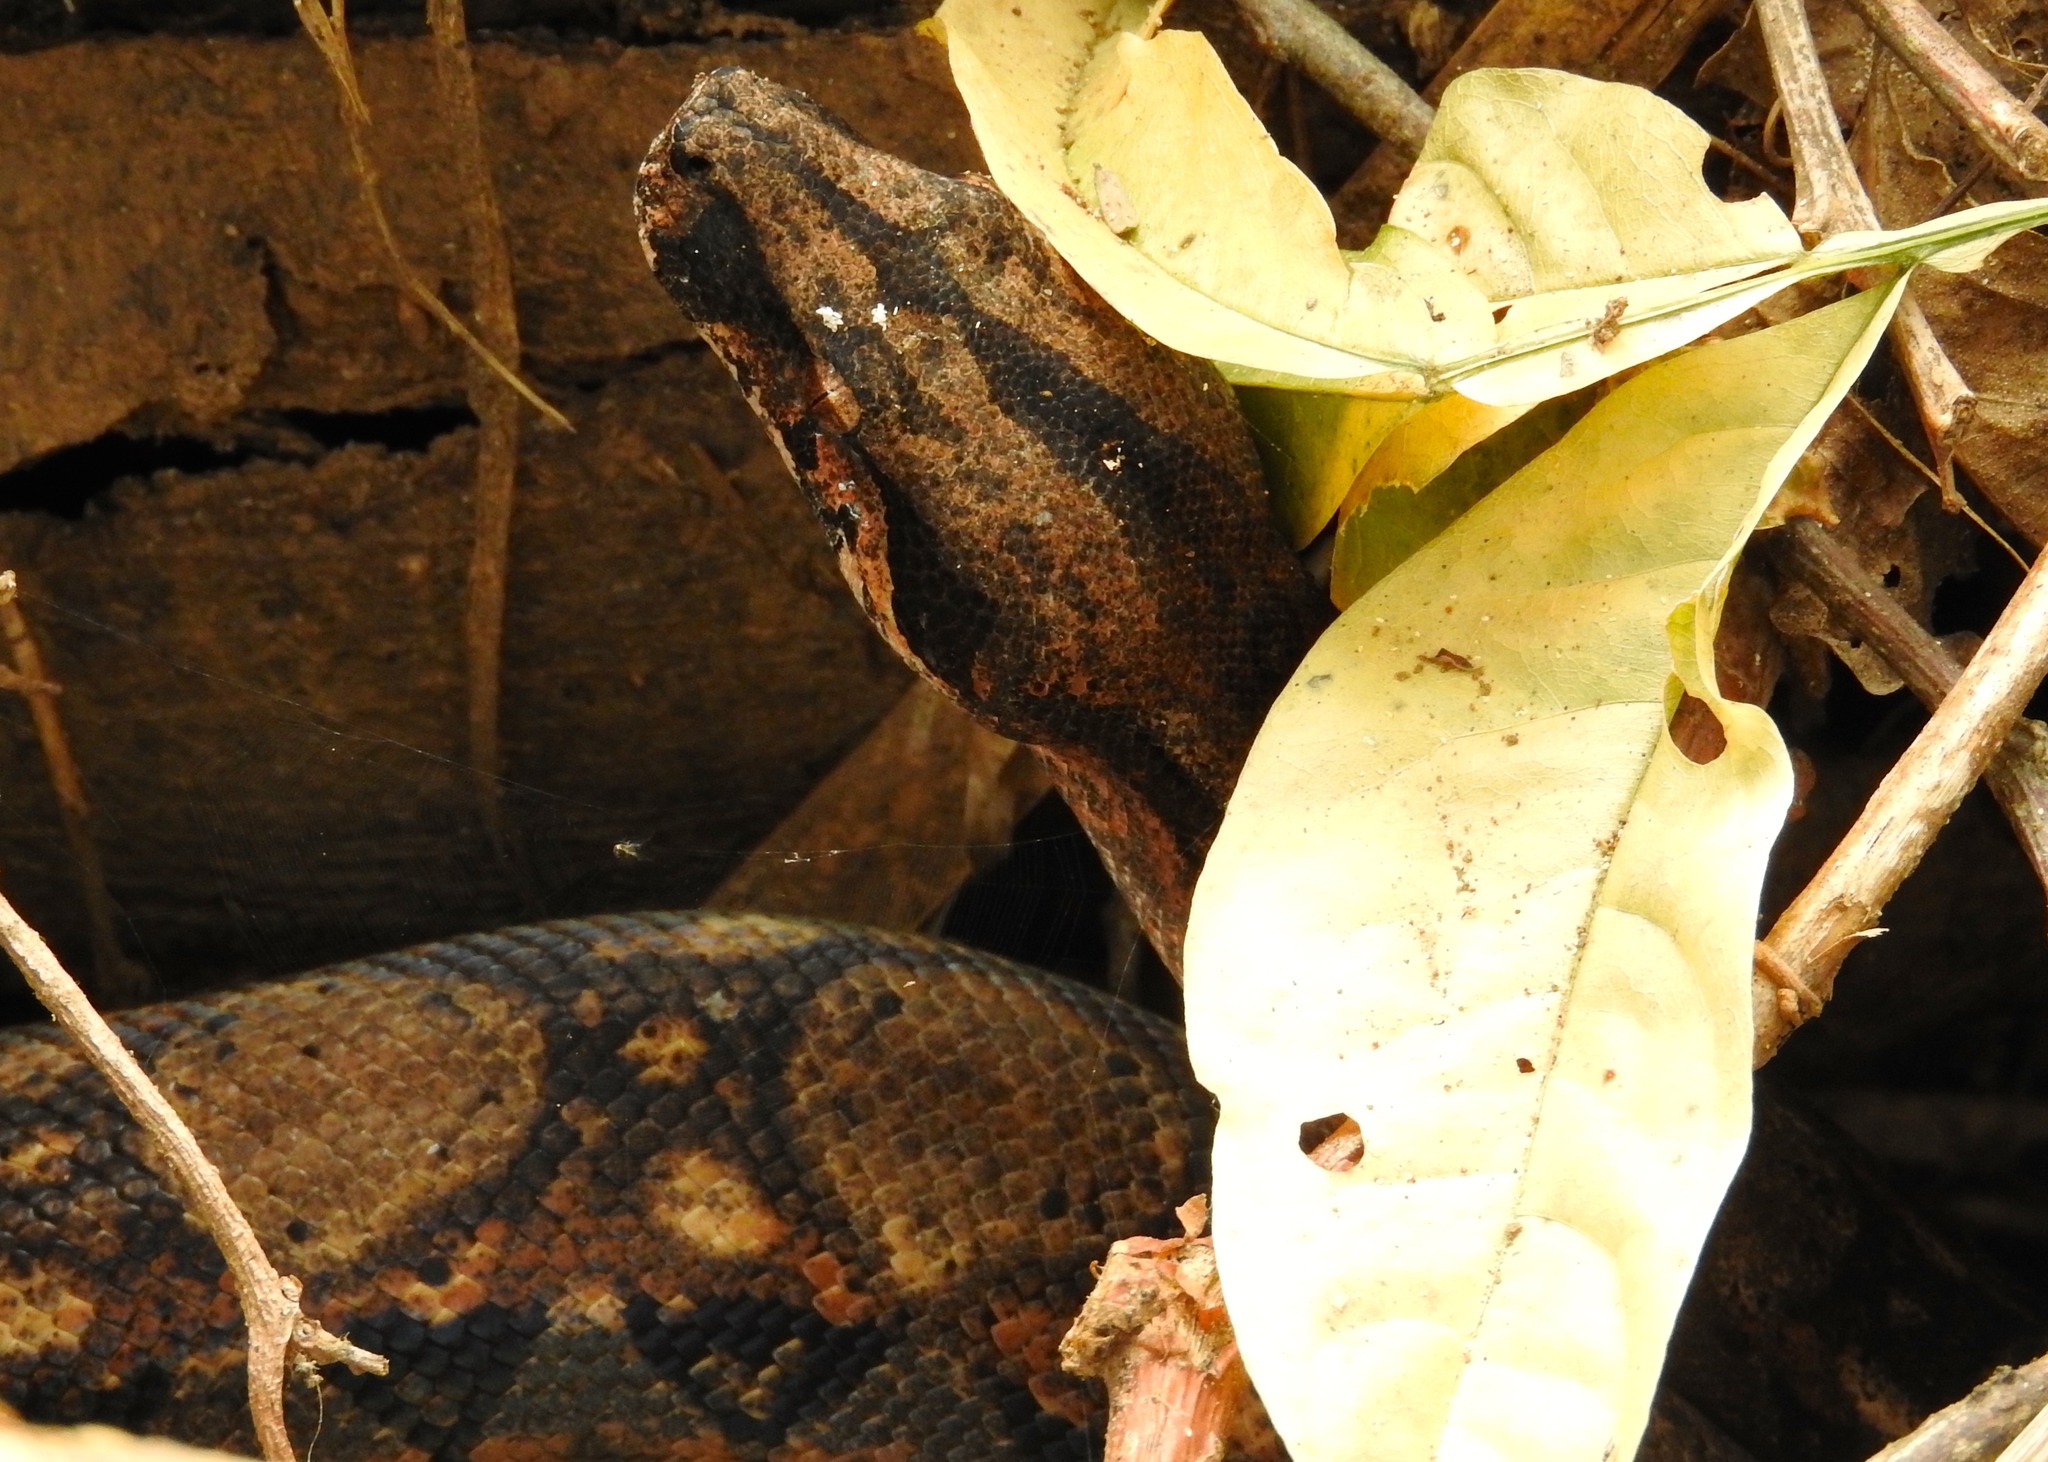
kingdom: Animalia
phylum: Chordata
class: Squamata
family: Boidae
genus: Boa
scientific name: Boa
